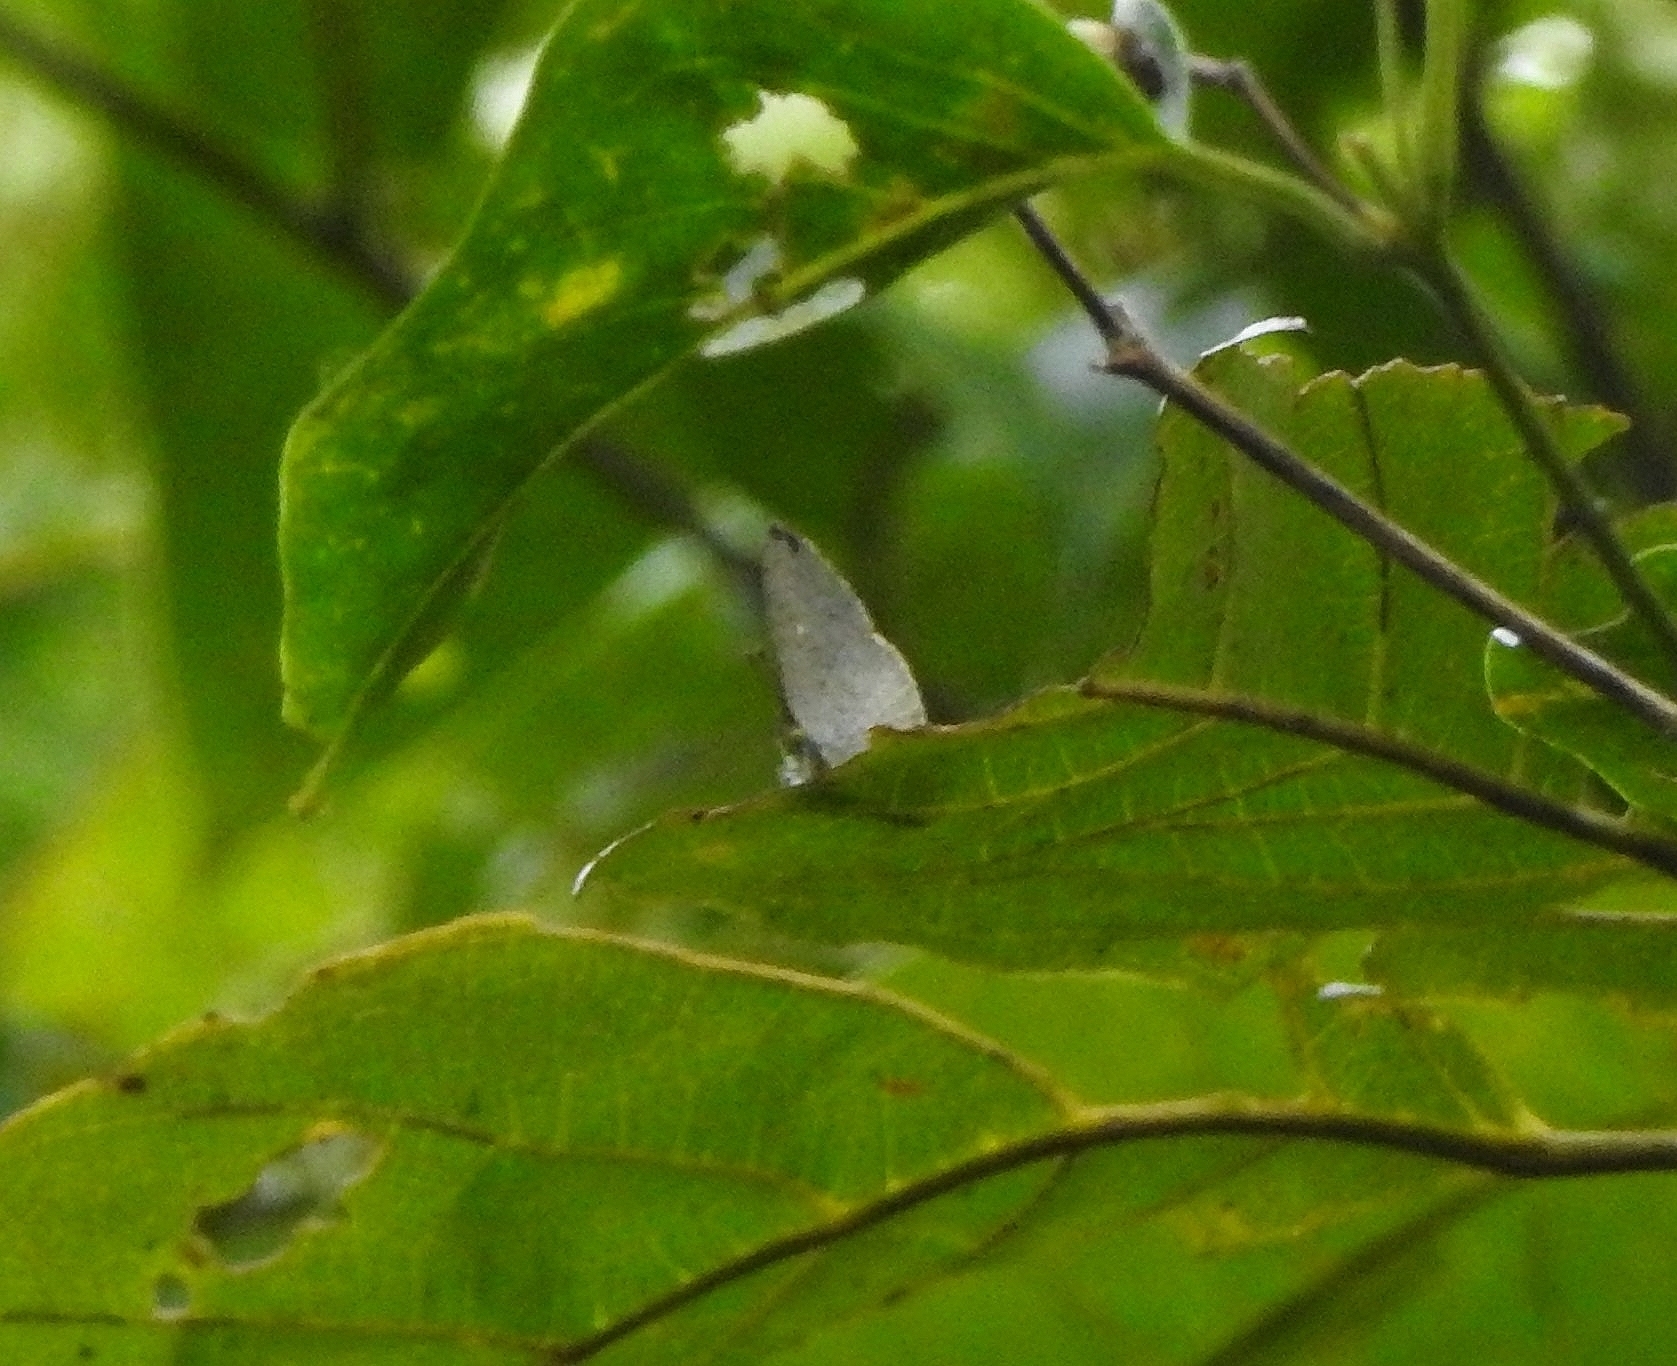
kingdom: Animalia
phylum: Arthropoda
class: Insecta
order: Lepidoptera
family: Lycaenidae
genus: Spalgis
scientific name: Spalgis epius
